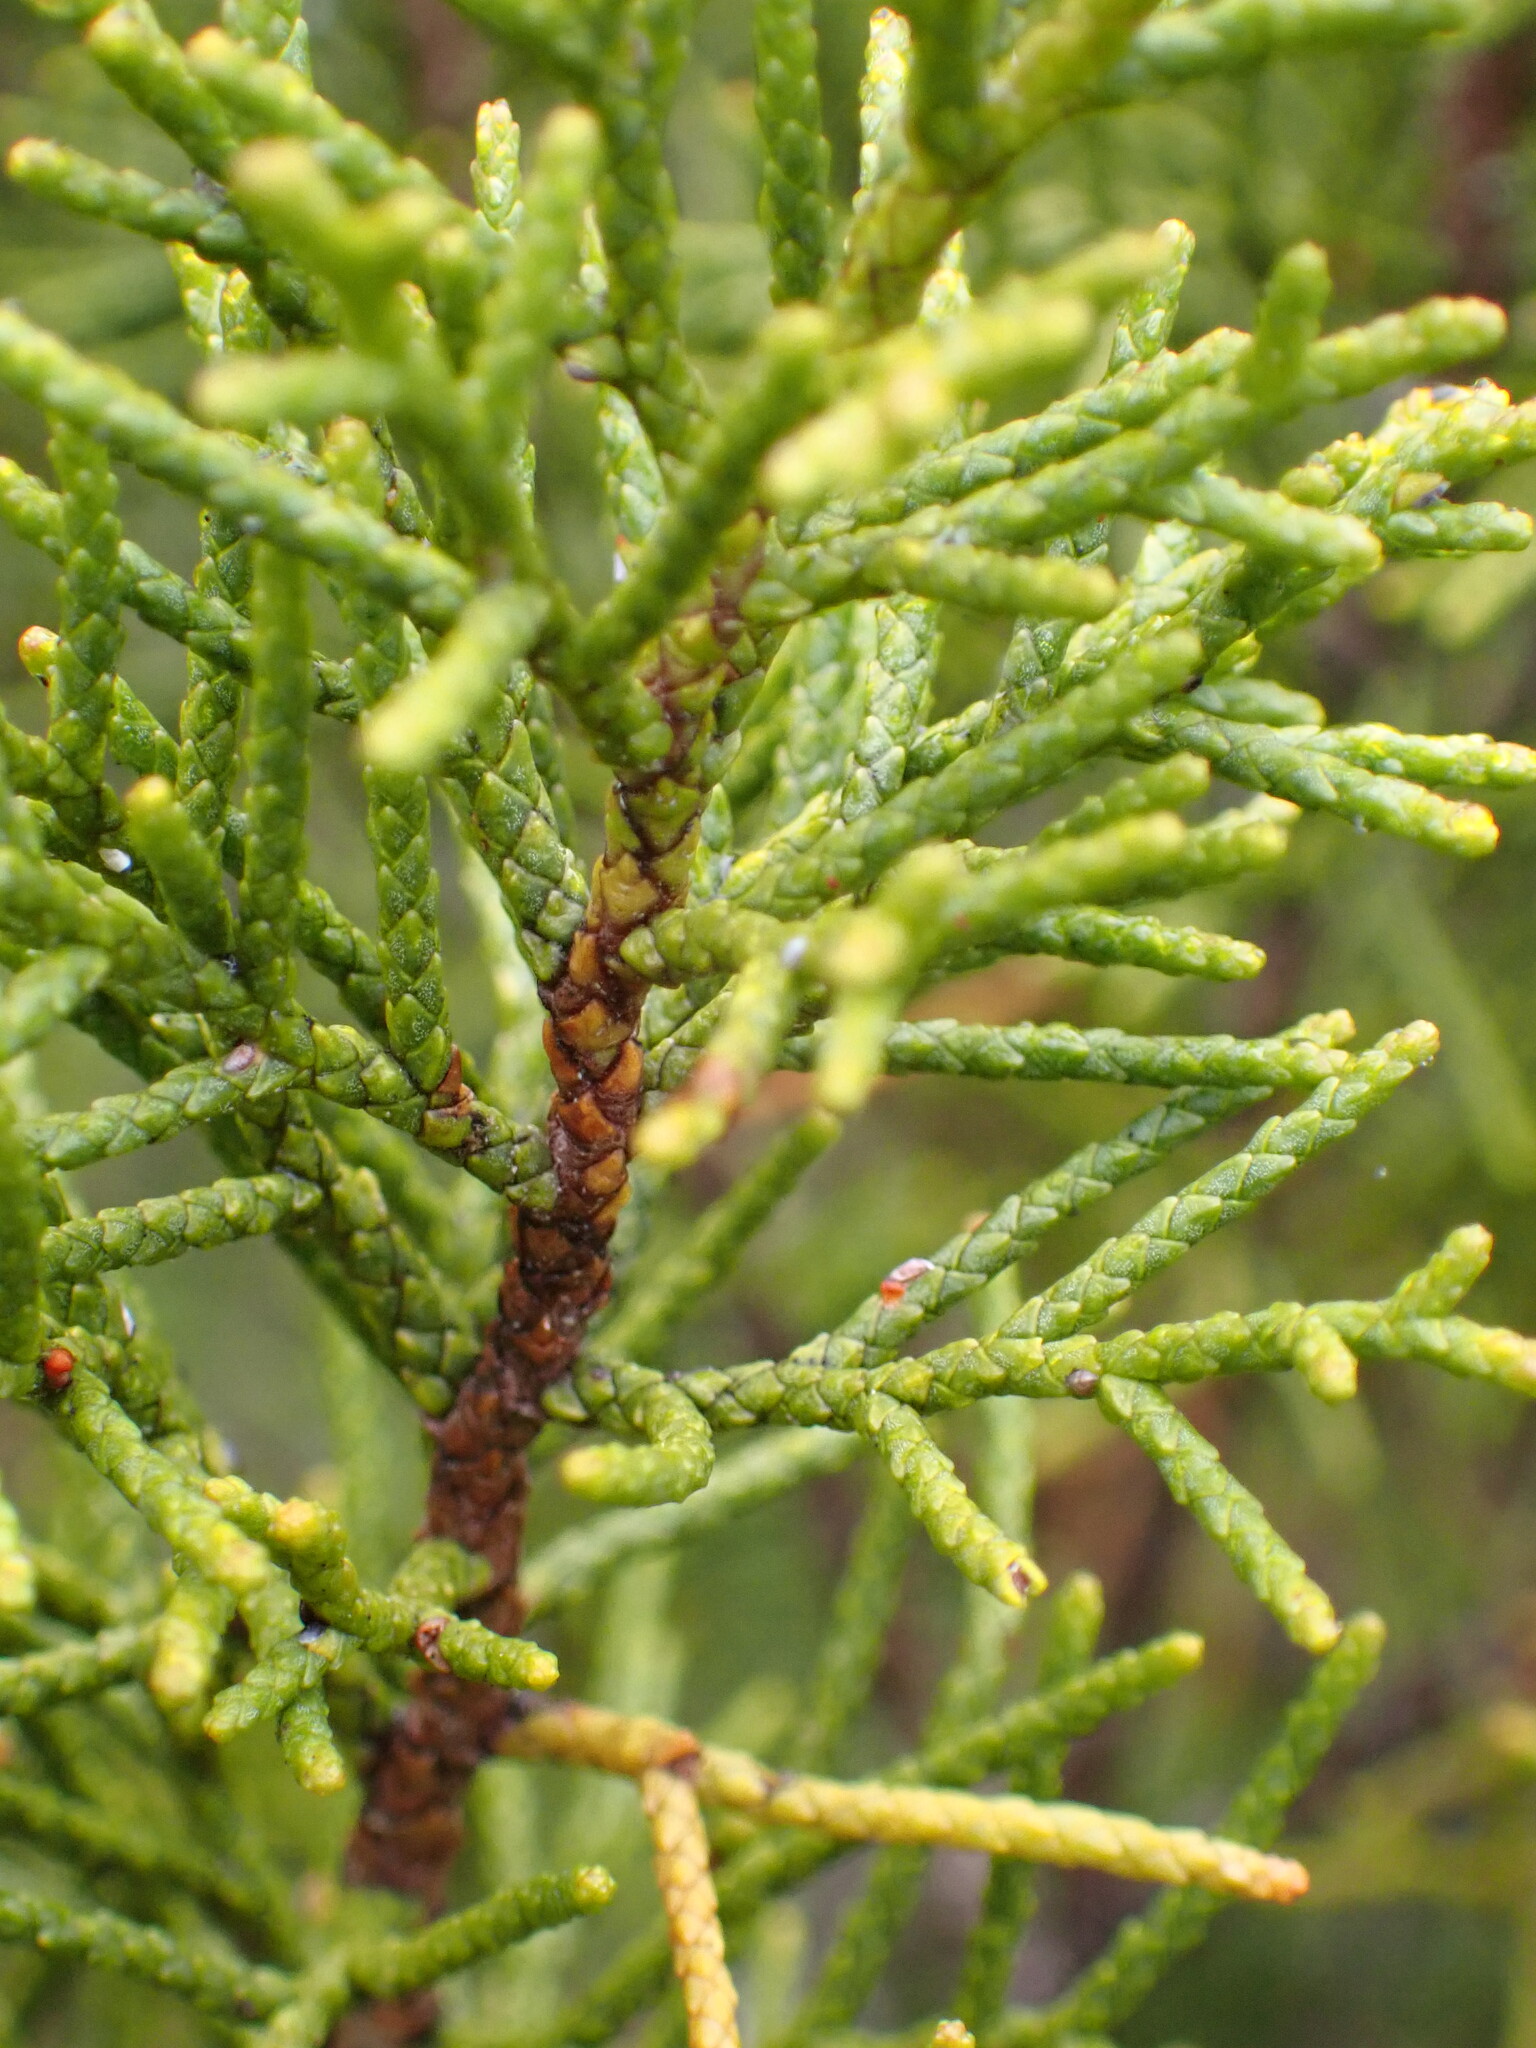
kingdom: Plantae
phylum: Tracheophyta
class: Pinopsida
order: Pinales
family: Podocarpaceae
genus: Halocarpus
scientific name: Halocarpus bidwillii
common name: Bog pine
